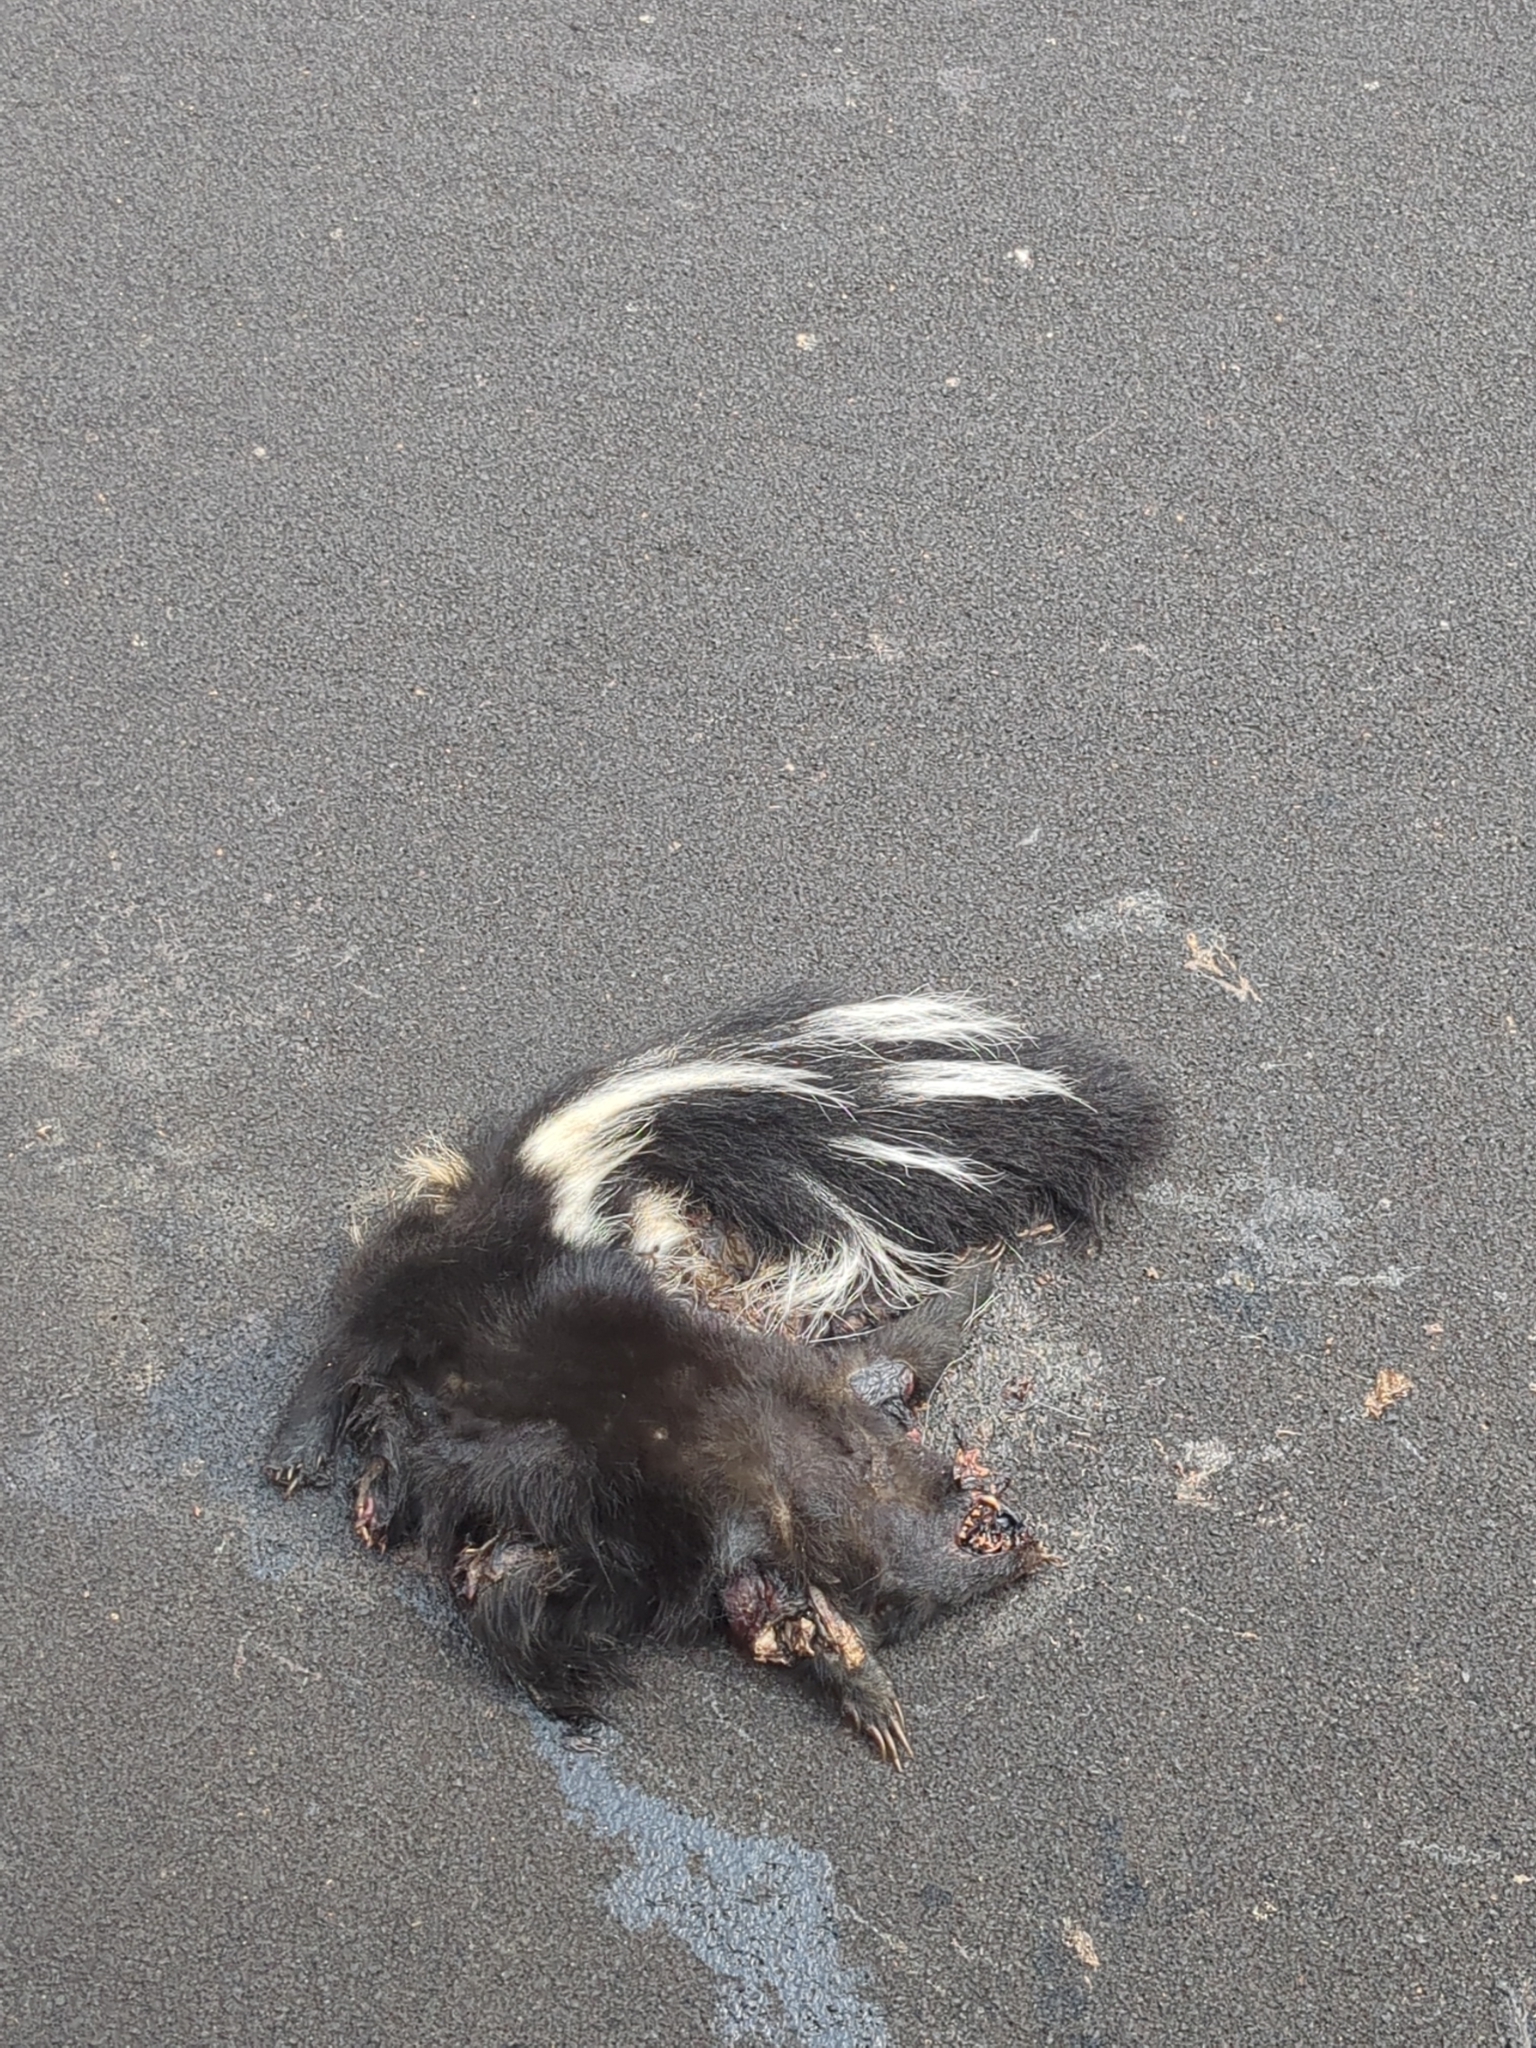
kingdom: Animalia
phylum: Chordata
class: Mammalia
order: Carnivora
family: Mephitidae
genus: Mephitis
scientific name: Mephitis mephitis
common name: Striped skunk
